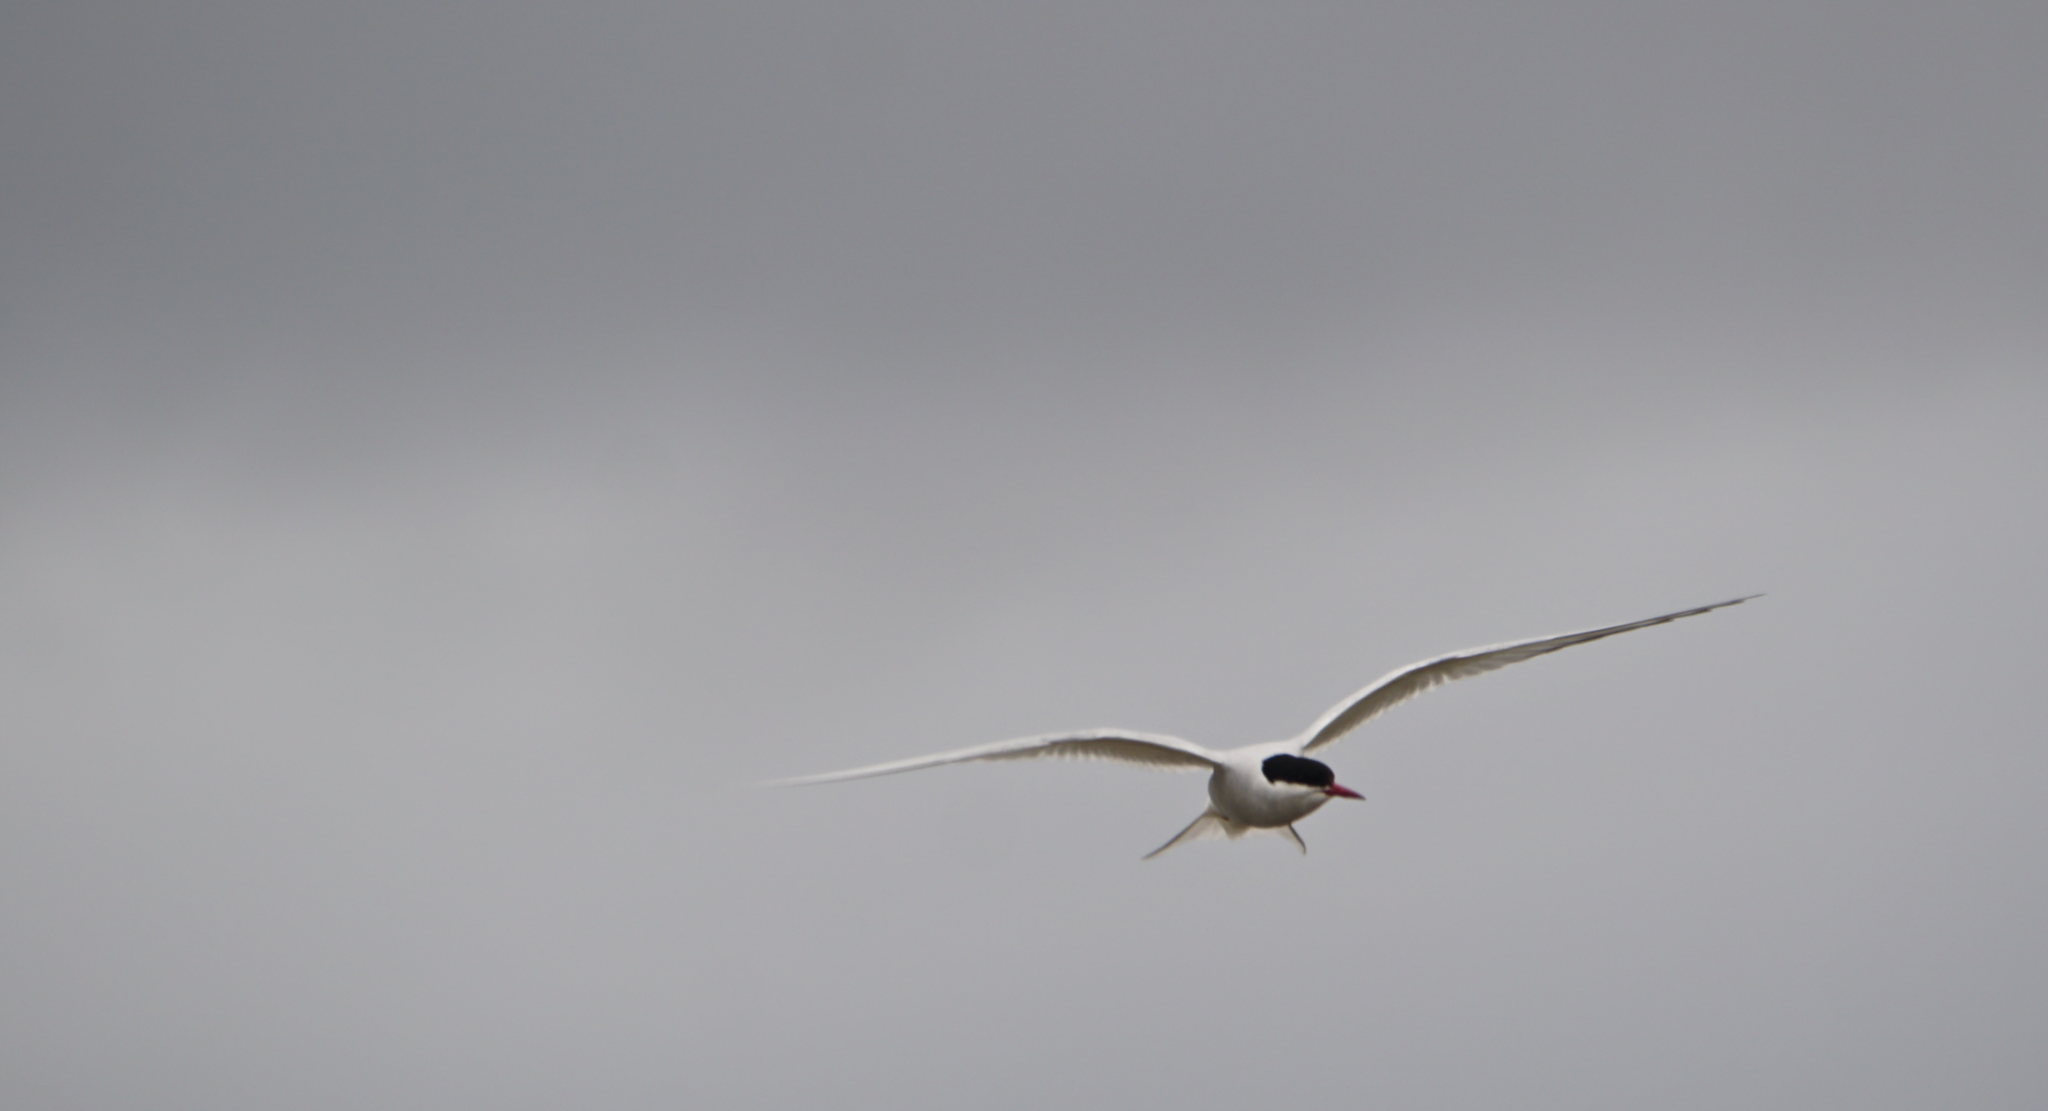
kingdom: Animalia
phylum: Chordata
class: Aves
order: Charadriiformes
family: Laridae
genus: Sterna
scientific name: Sterna paradisaea
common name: Arctic tern
